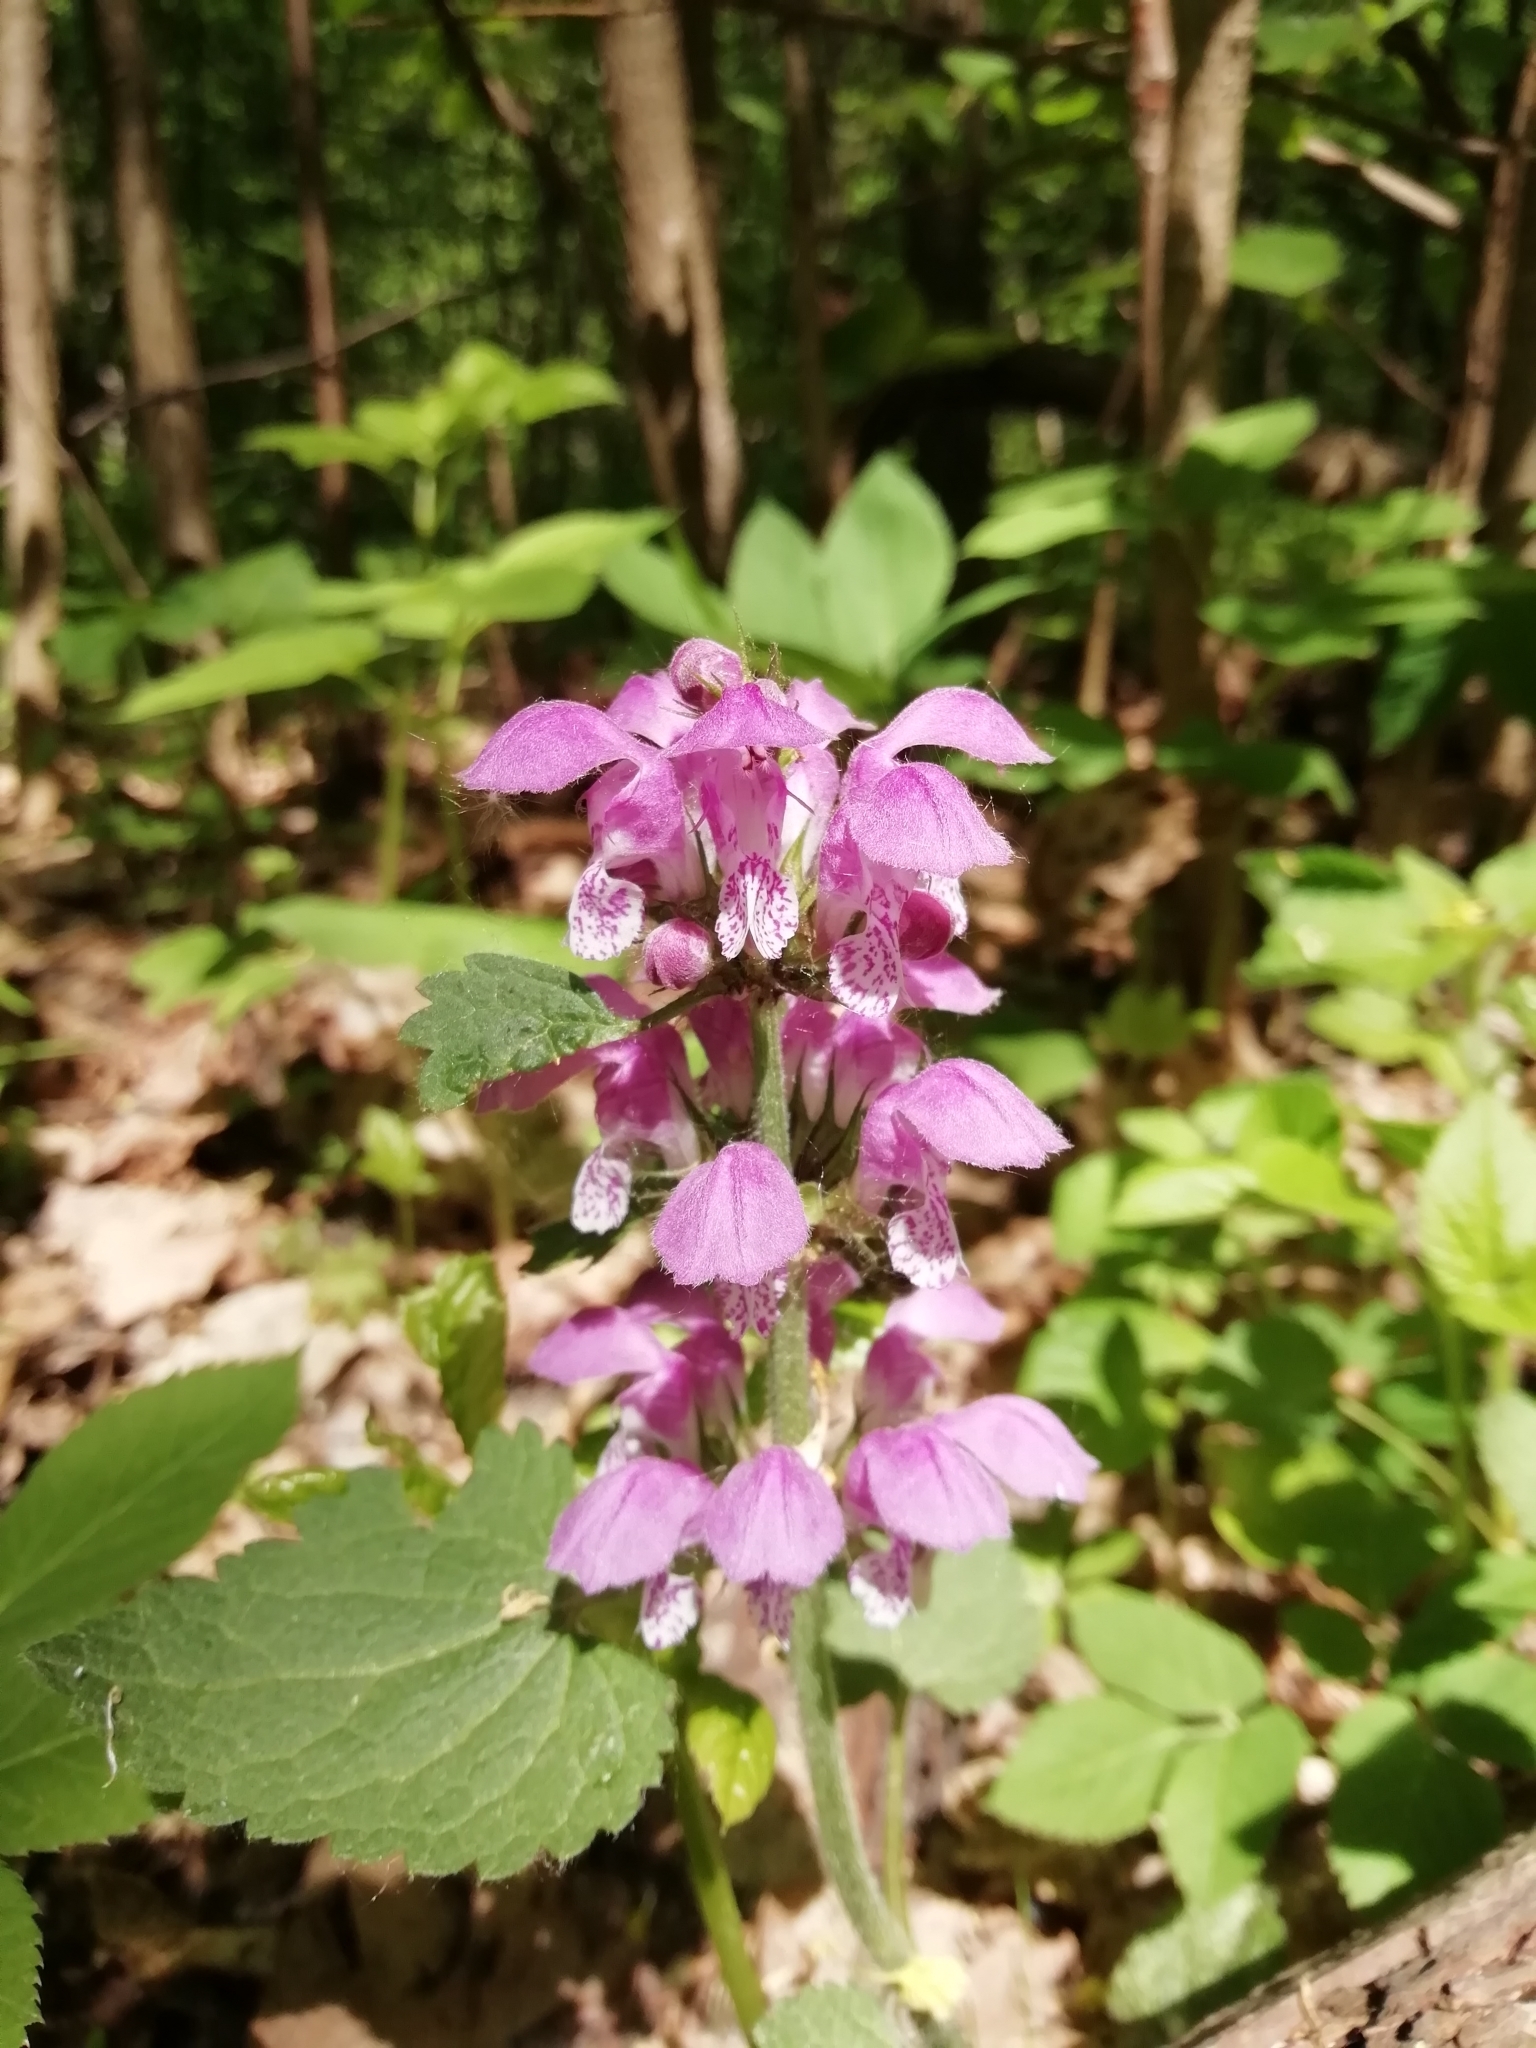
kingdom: Plantae
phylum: Tracheophyta
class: Magnoliopsida
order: Lamiales
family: Lamiaceae
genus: Lamium
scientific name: Lamium maculatum
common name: Spotted dead-nettle
